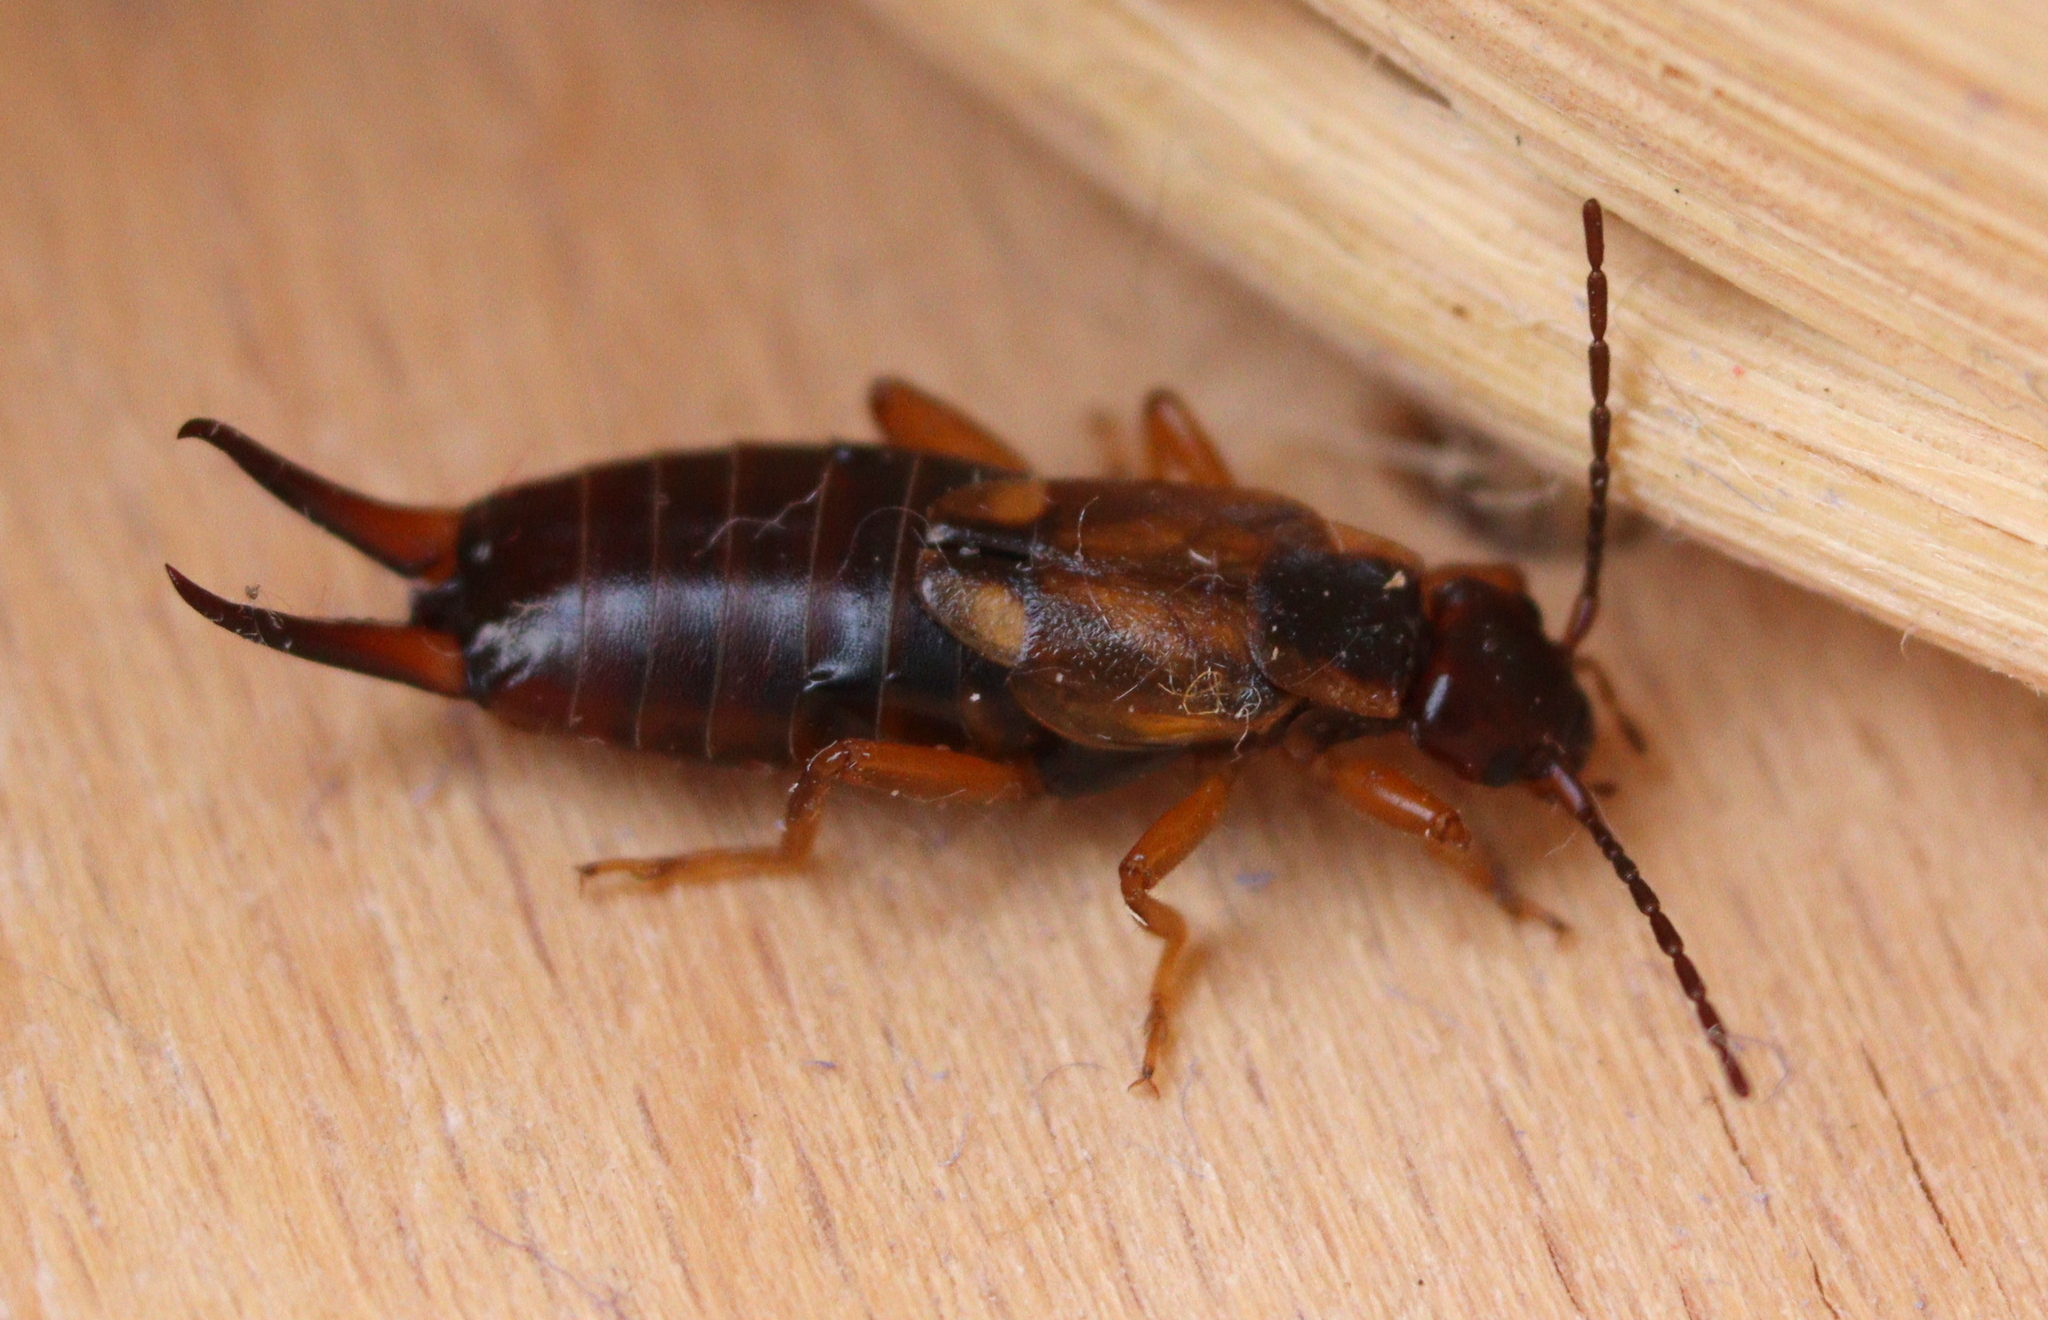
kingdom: Animalia
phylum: Arthropoda
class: Insecta
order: Dermaptera
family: Forficulidae
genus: Forficula
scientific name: Forficula
